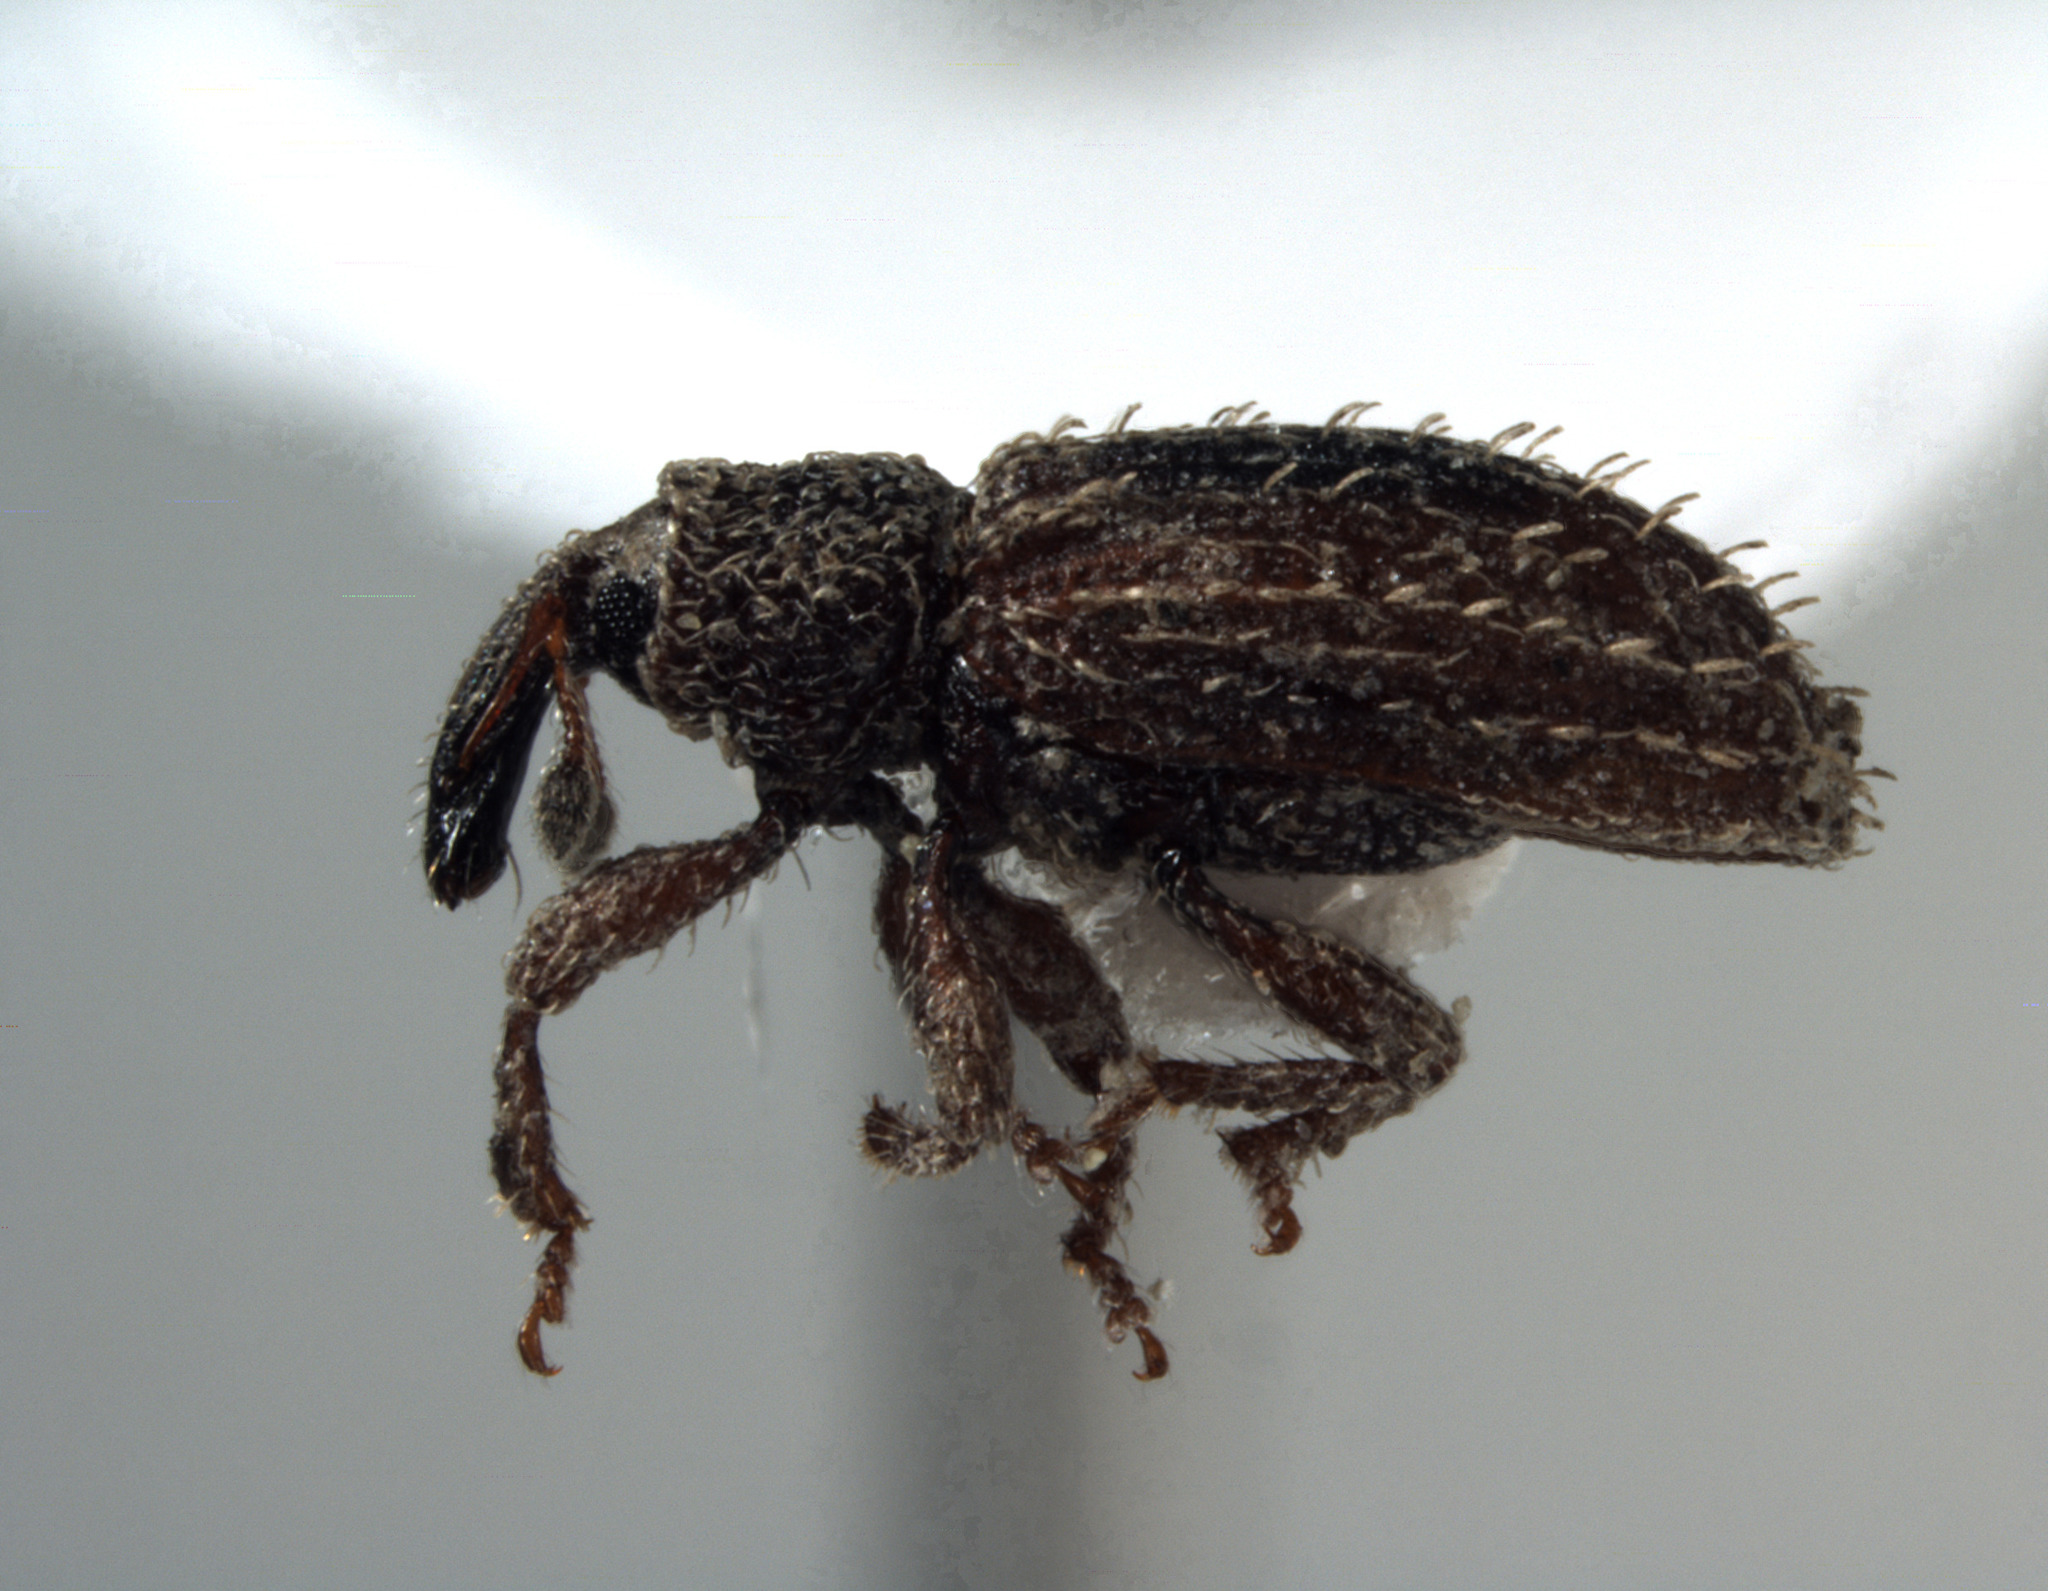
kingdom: Animalia
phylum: Arthropoda
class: Insecta
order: Coleoptera
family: Curculionidae
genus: Orthochaetes
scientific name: Orthochaetes setiger
